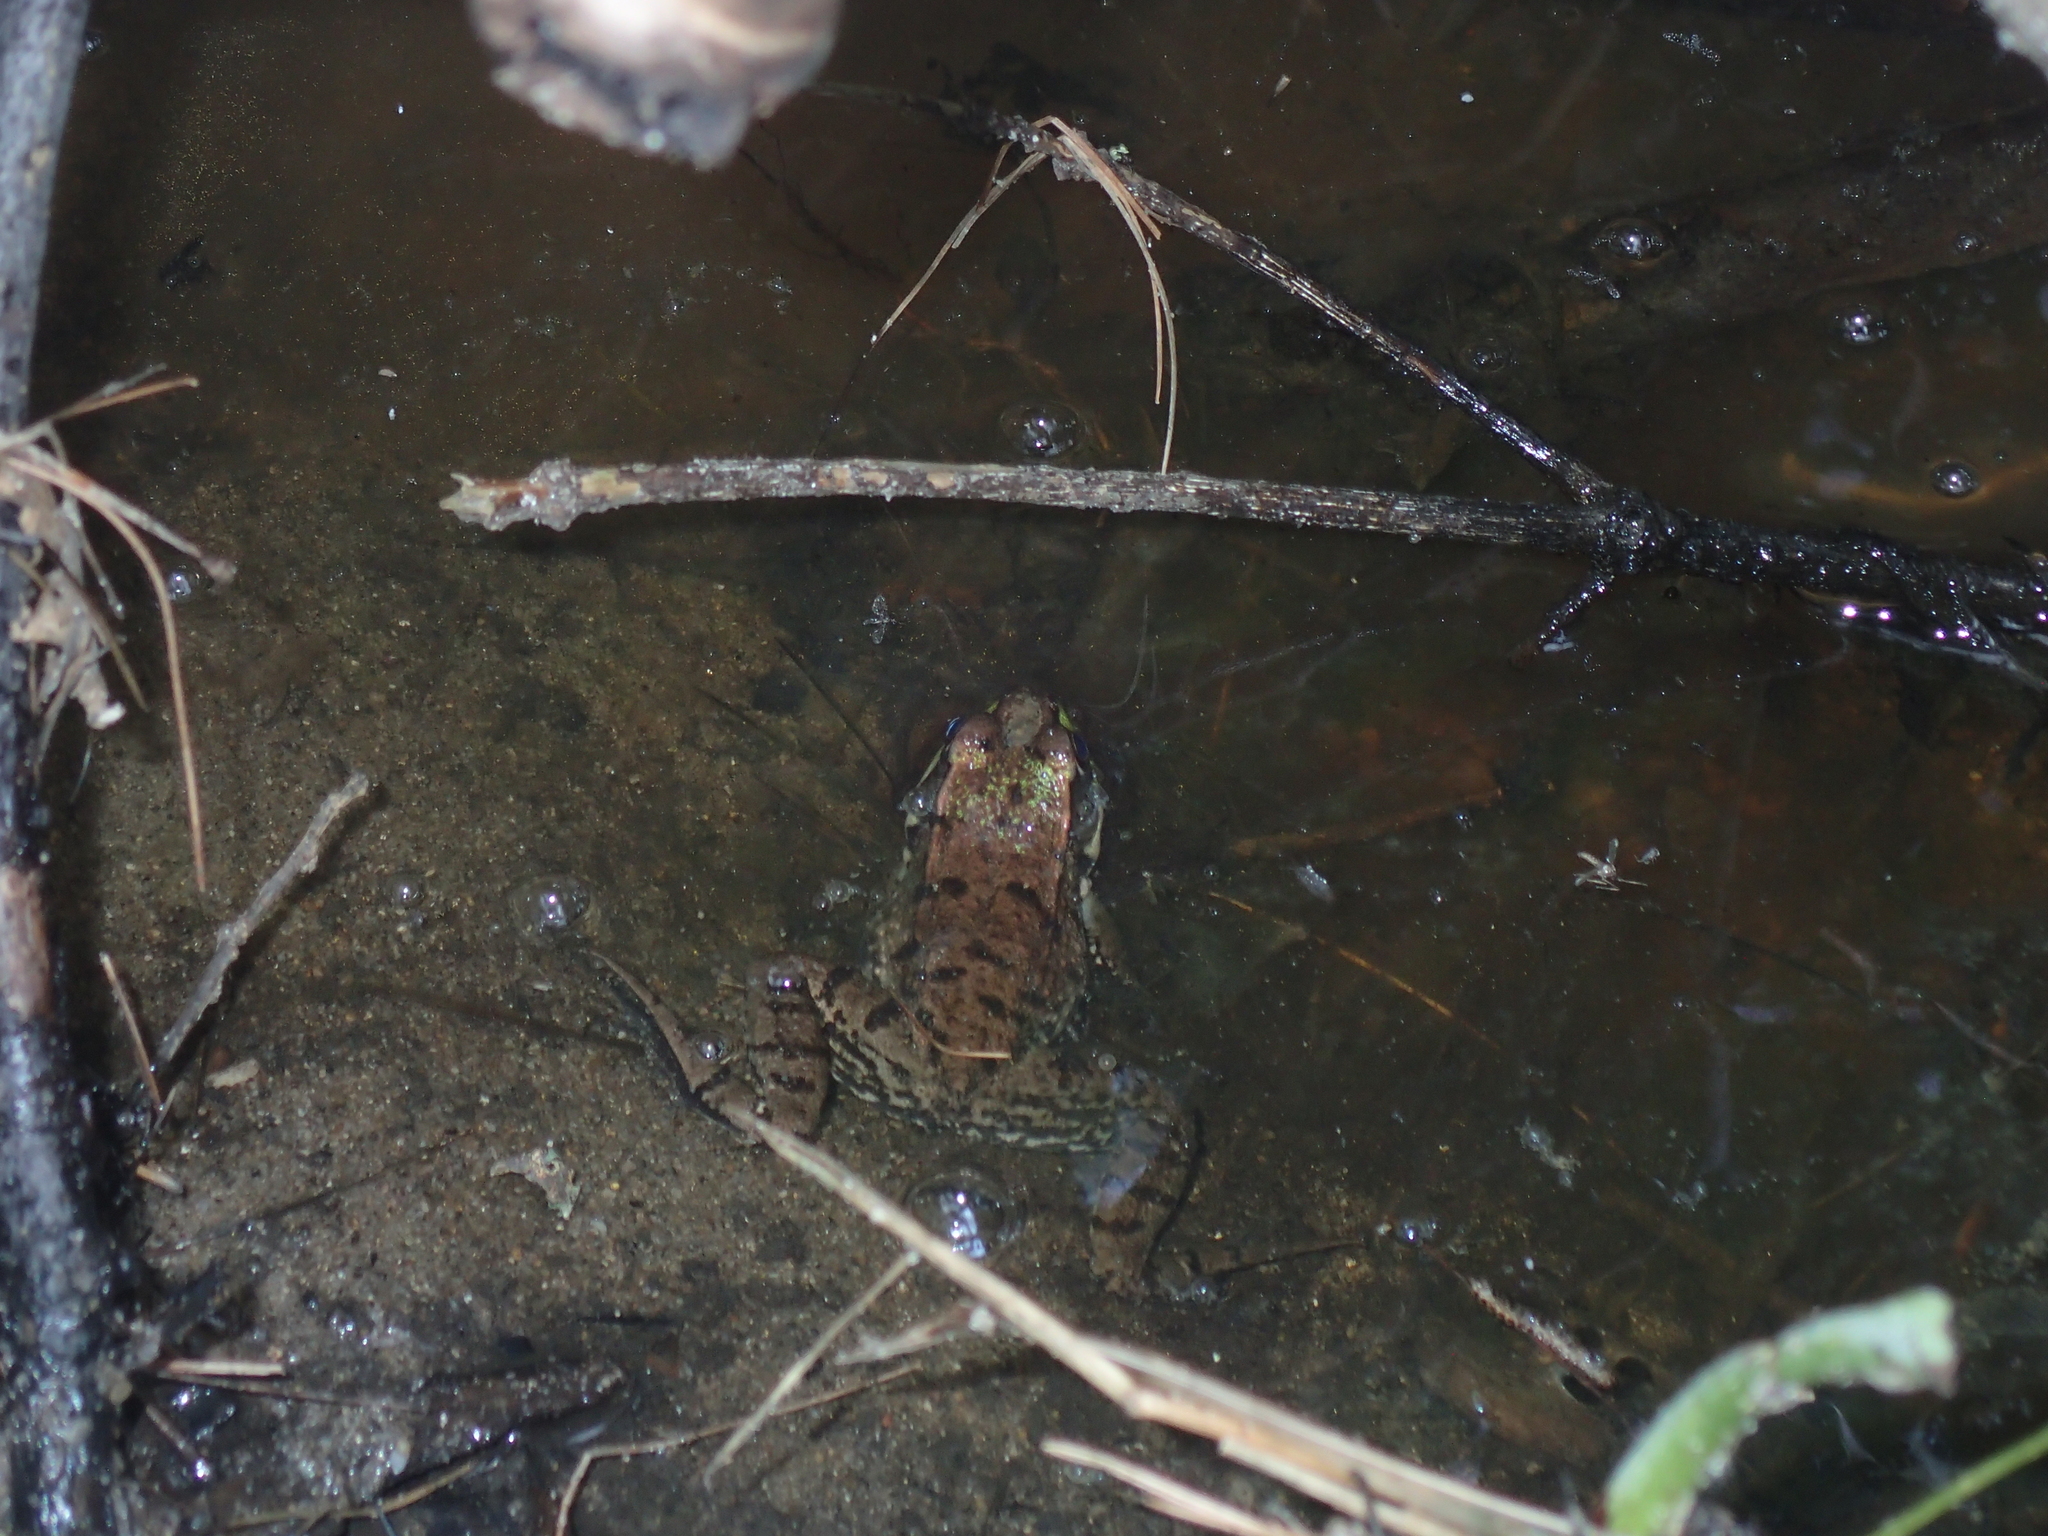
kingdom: Animalia
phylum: Chordata
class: Amphibia
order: Anura
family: Ranidae
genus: Lithobates
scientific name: Lithobates clamitans
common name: Green frog
